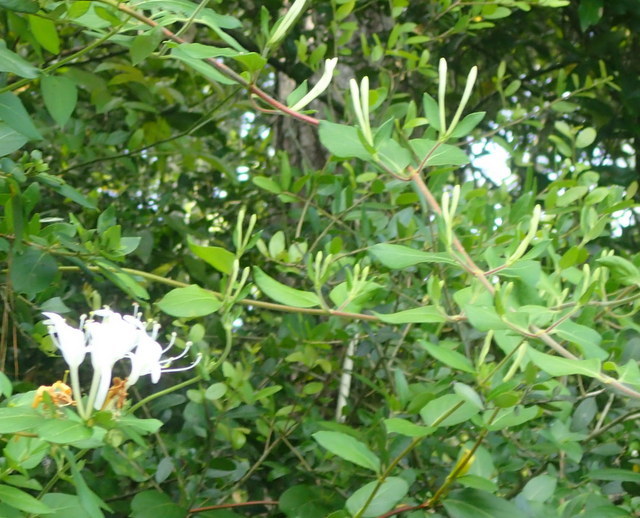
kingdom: Plantae
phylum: Tracheophyta
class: Magnoliopsida
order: Dipsacales
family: Caprifoliaceae
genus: Lonicera
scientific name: Lonicera japonica
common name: Japanese honeysuckle
